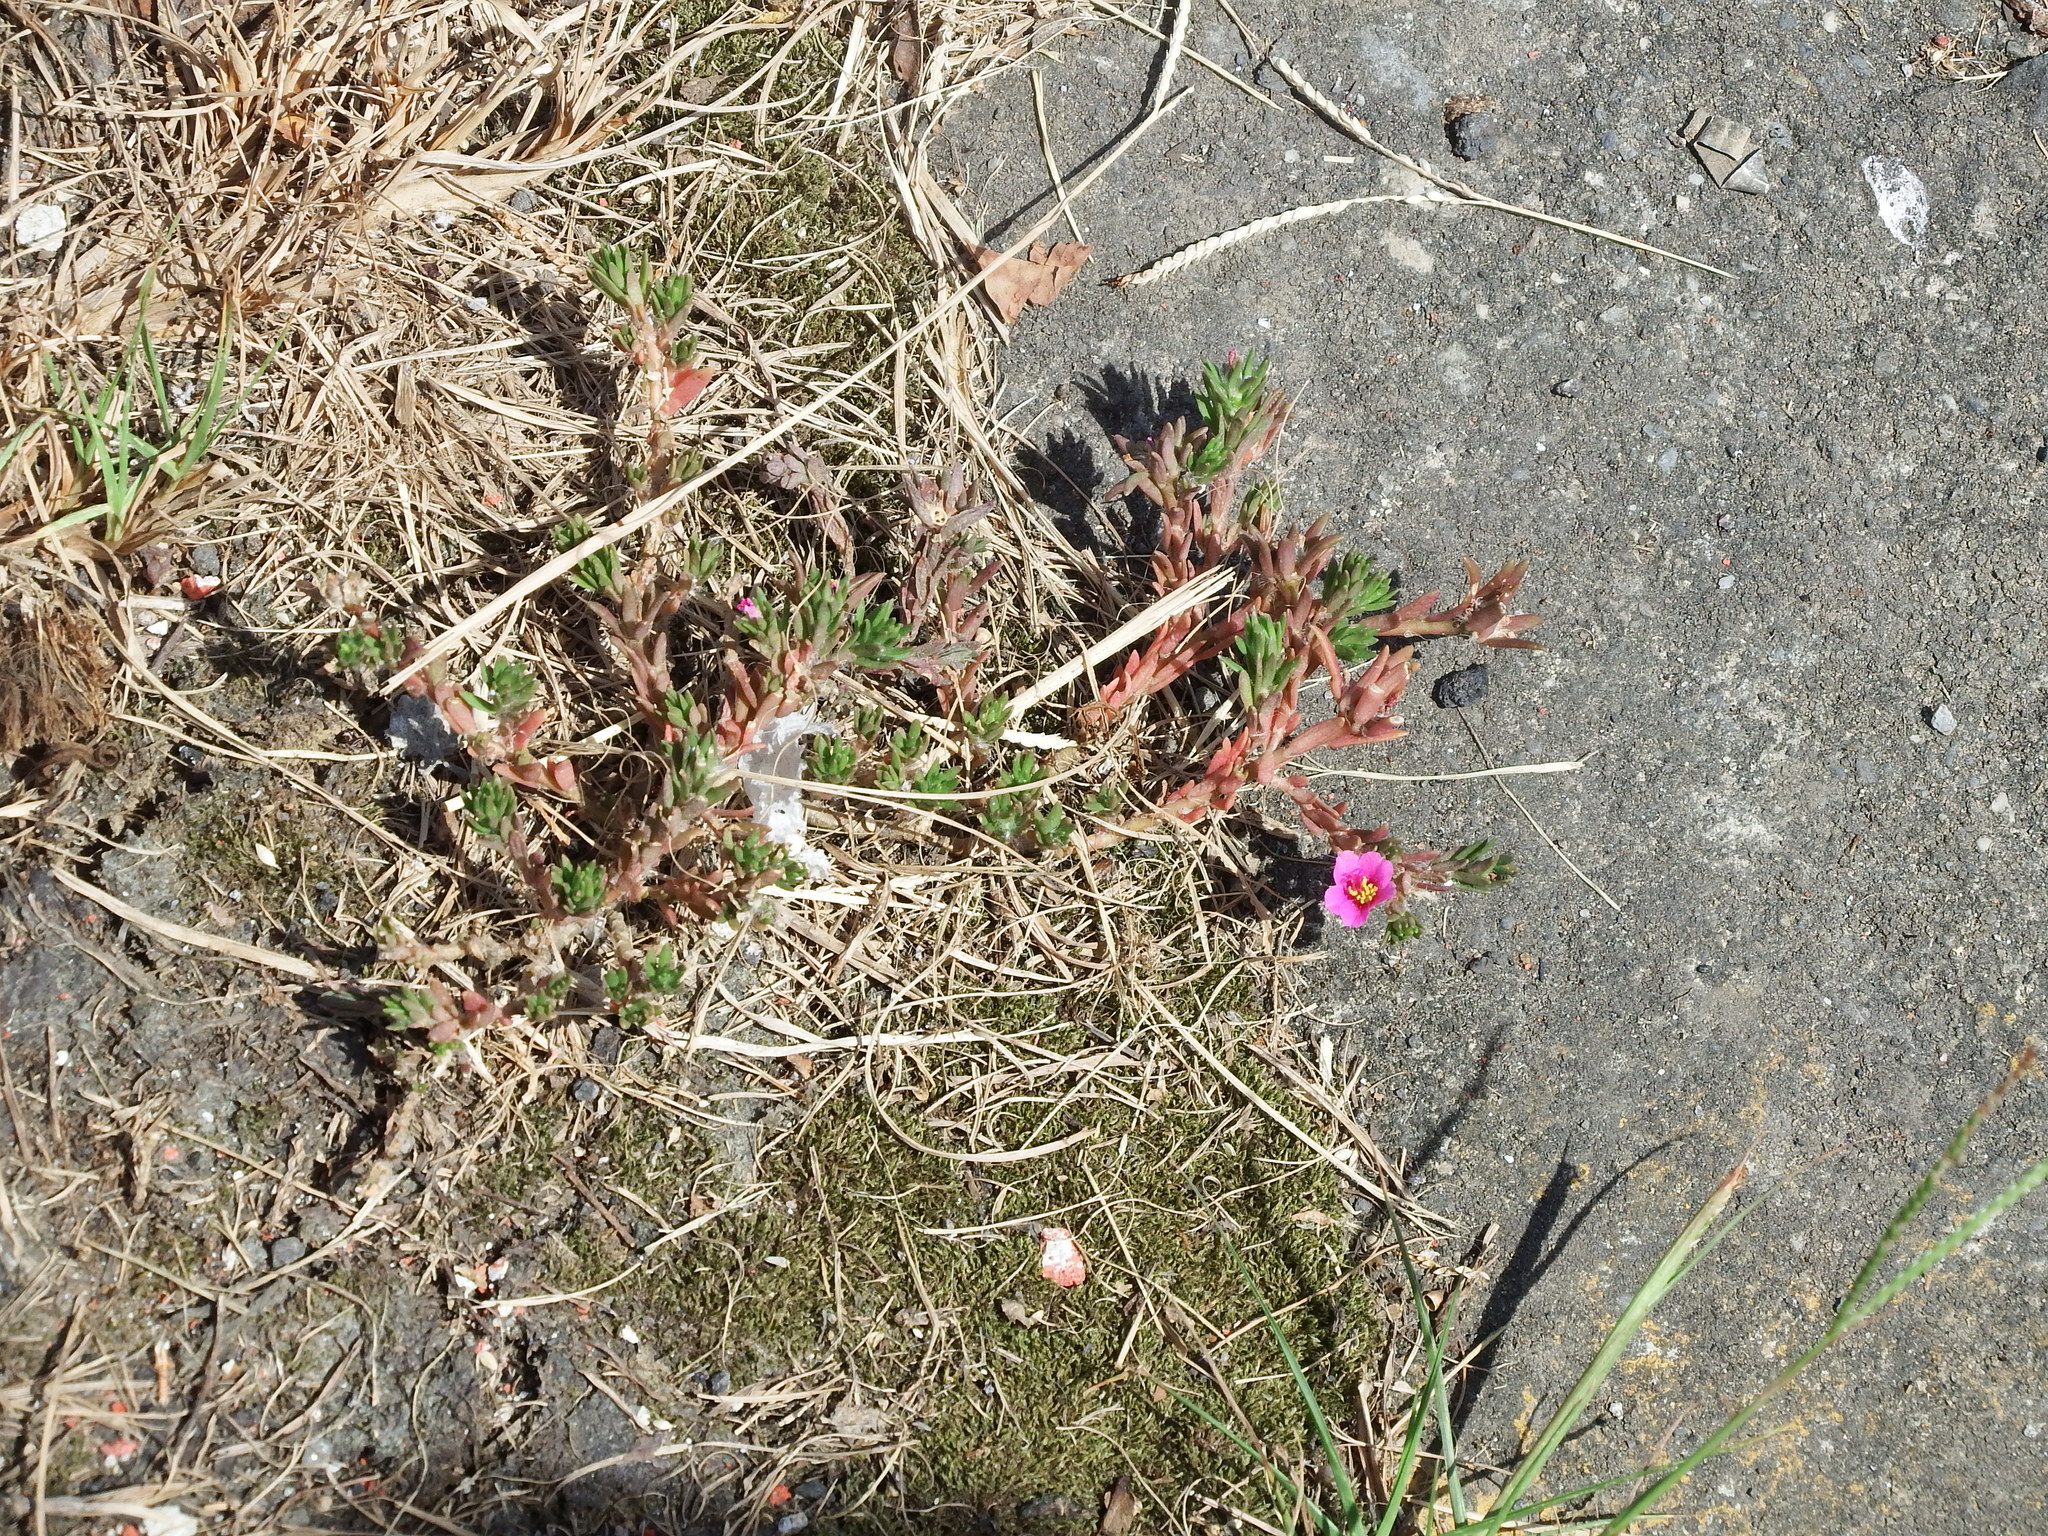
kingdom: Plantae
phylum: Tracheophyta
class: Magnoliopsida
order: Caryophyllales
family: Portulacaceae
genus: Portulaca
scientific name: Portulaca pilosa
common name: Kiss me quick
